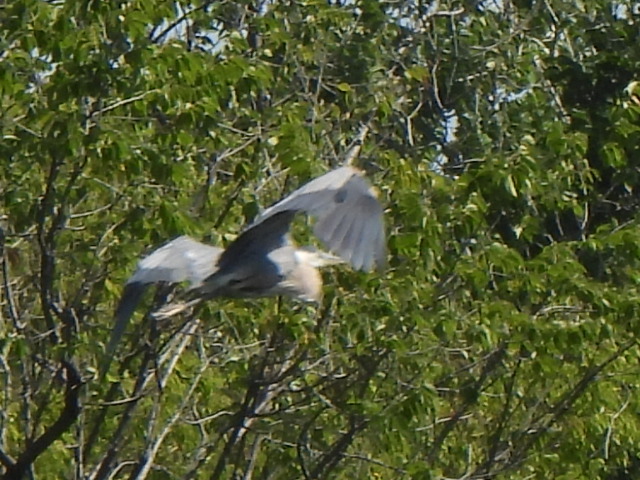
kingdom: Animalia
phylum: Chordata
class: Aves
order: Pelecaniformes
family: Ardeidae
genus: Ardea
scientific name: Ardea herodias
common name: Great blue heron
